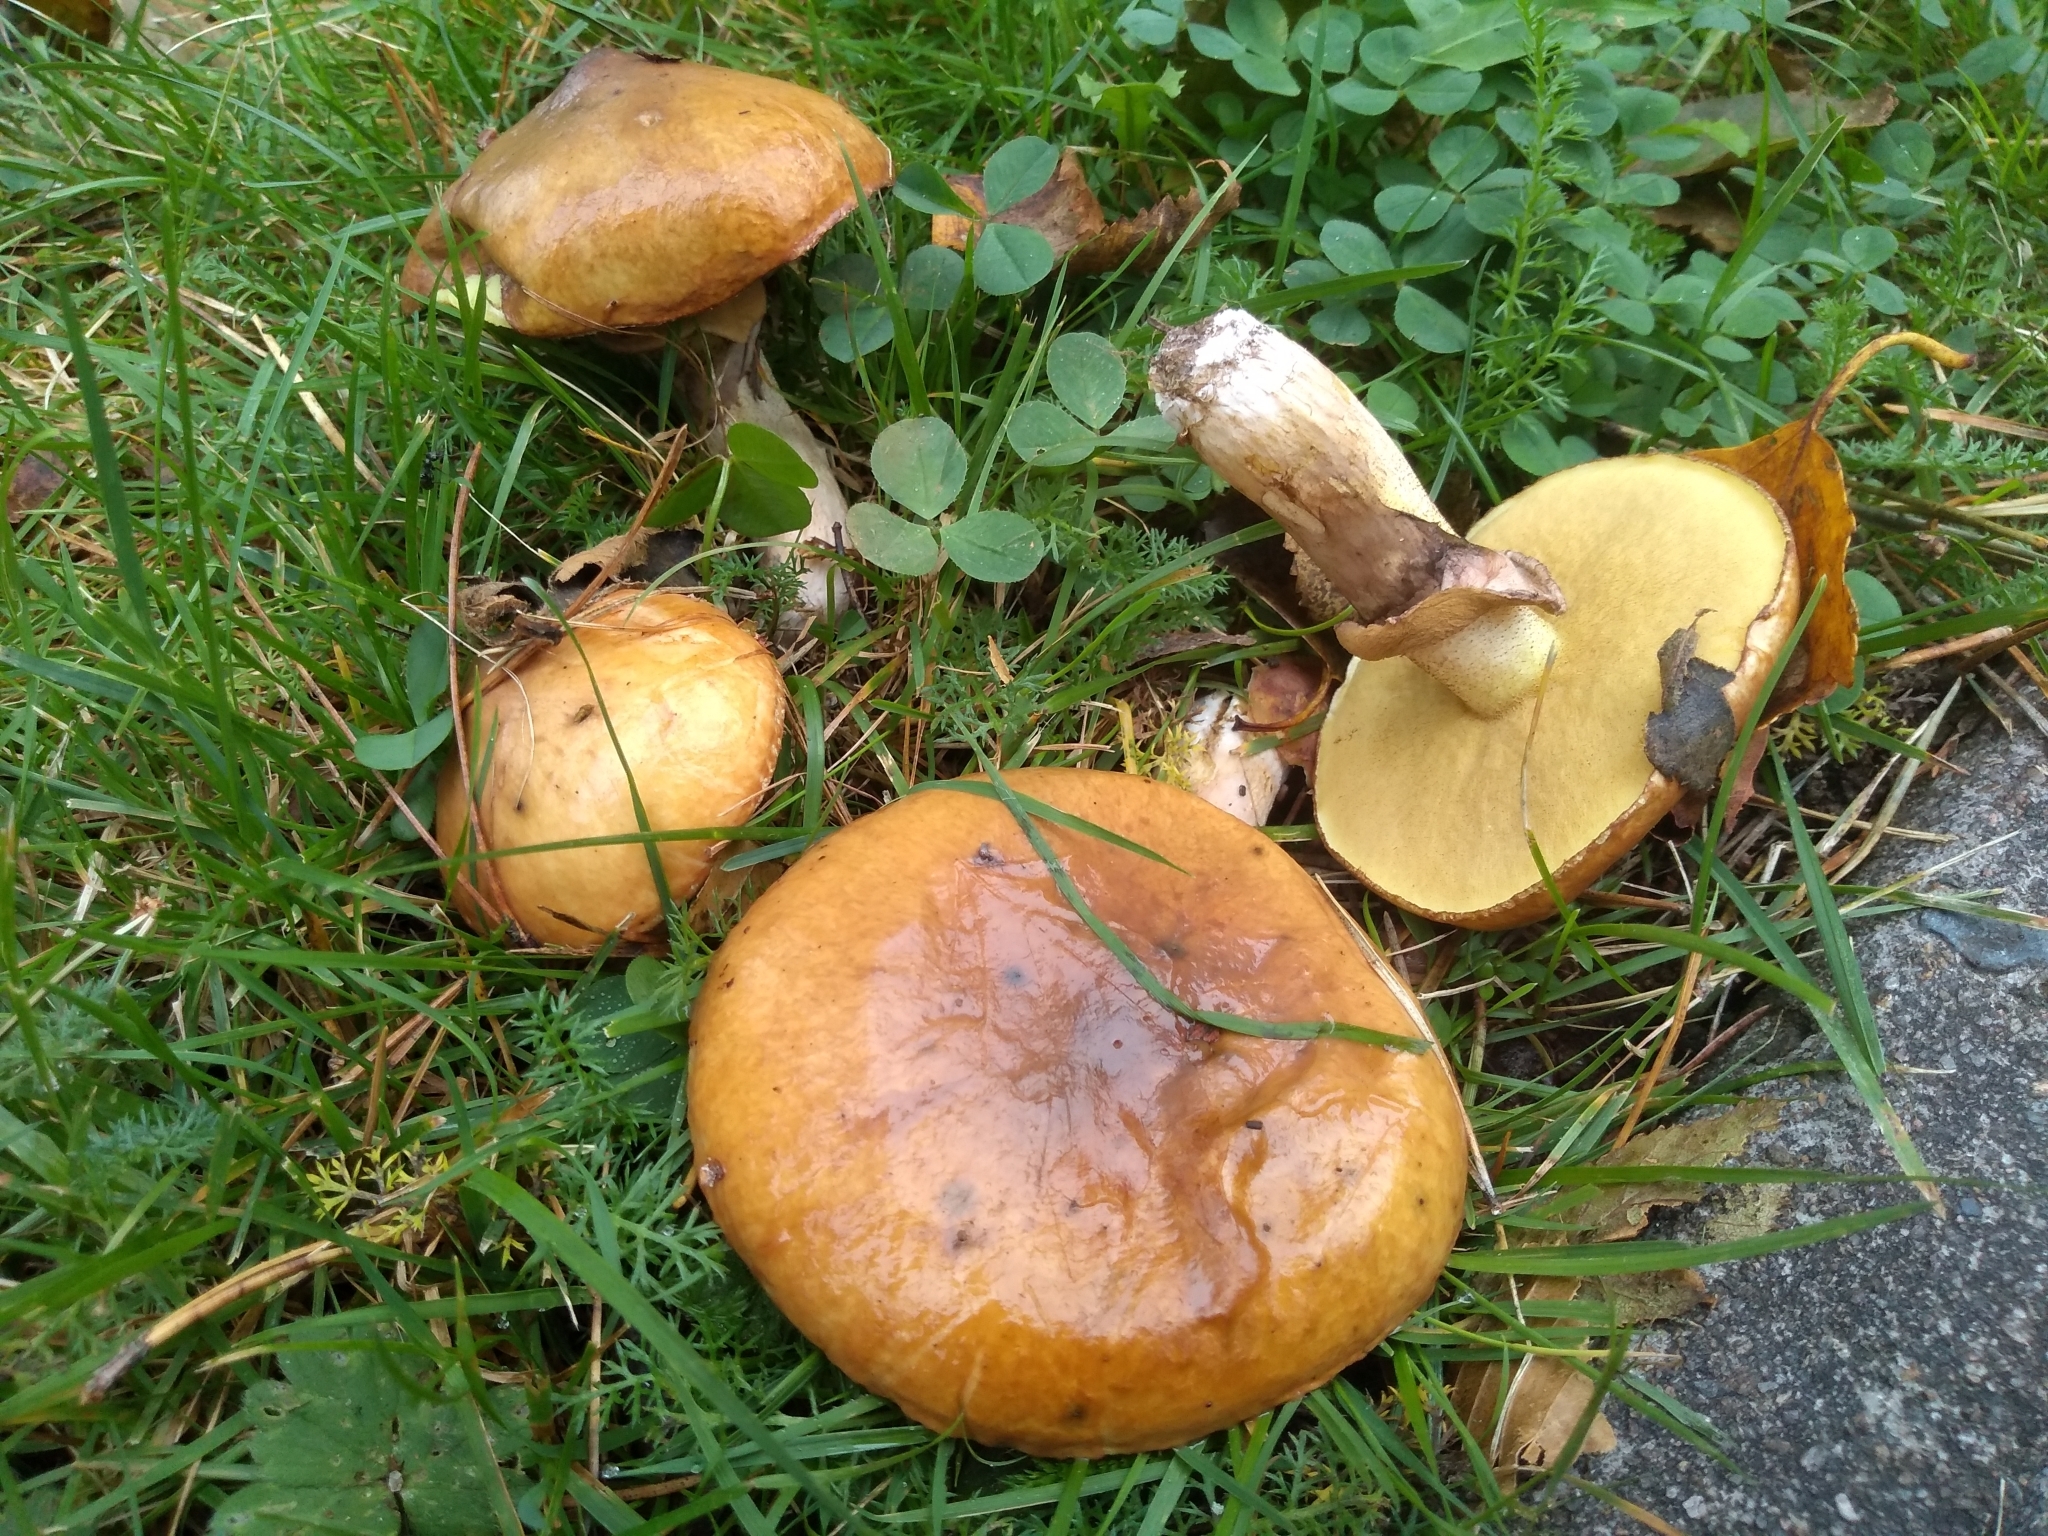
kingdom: Fungi
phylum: Basidiomycota
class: Agaricomycetes
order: Boletales
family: Suillaceae
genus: Suillus
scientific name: Suillus luteus
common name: Slippery jack
